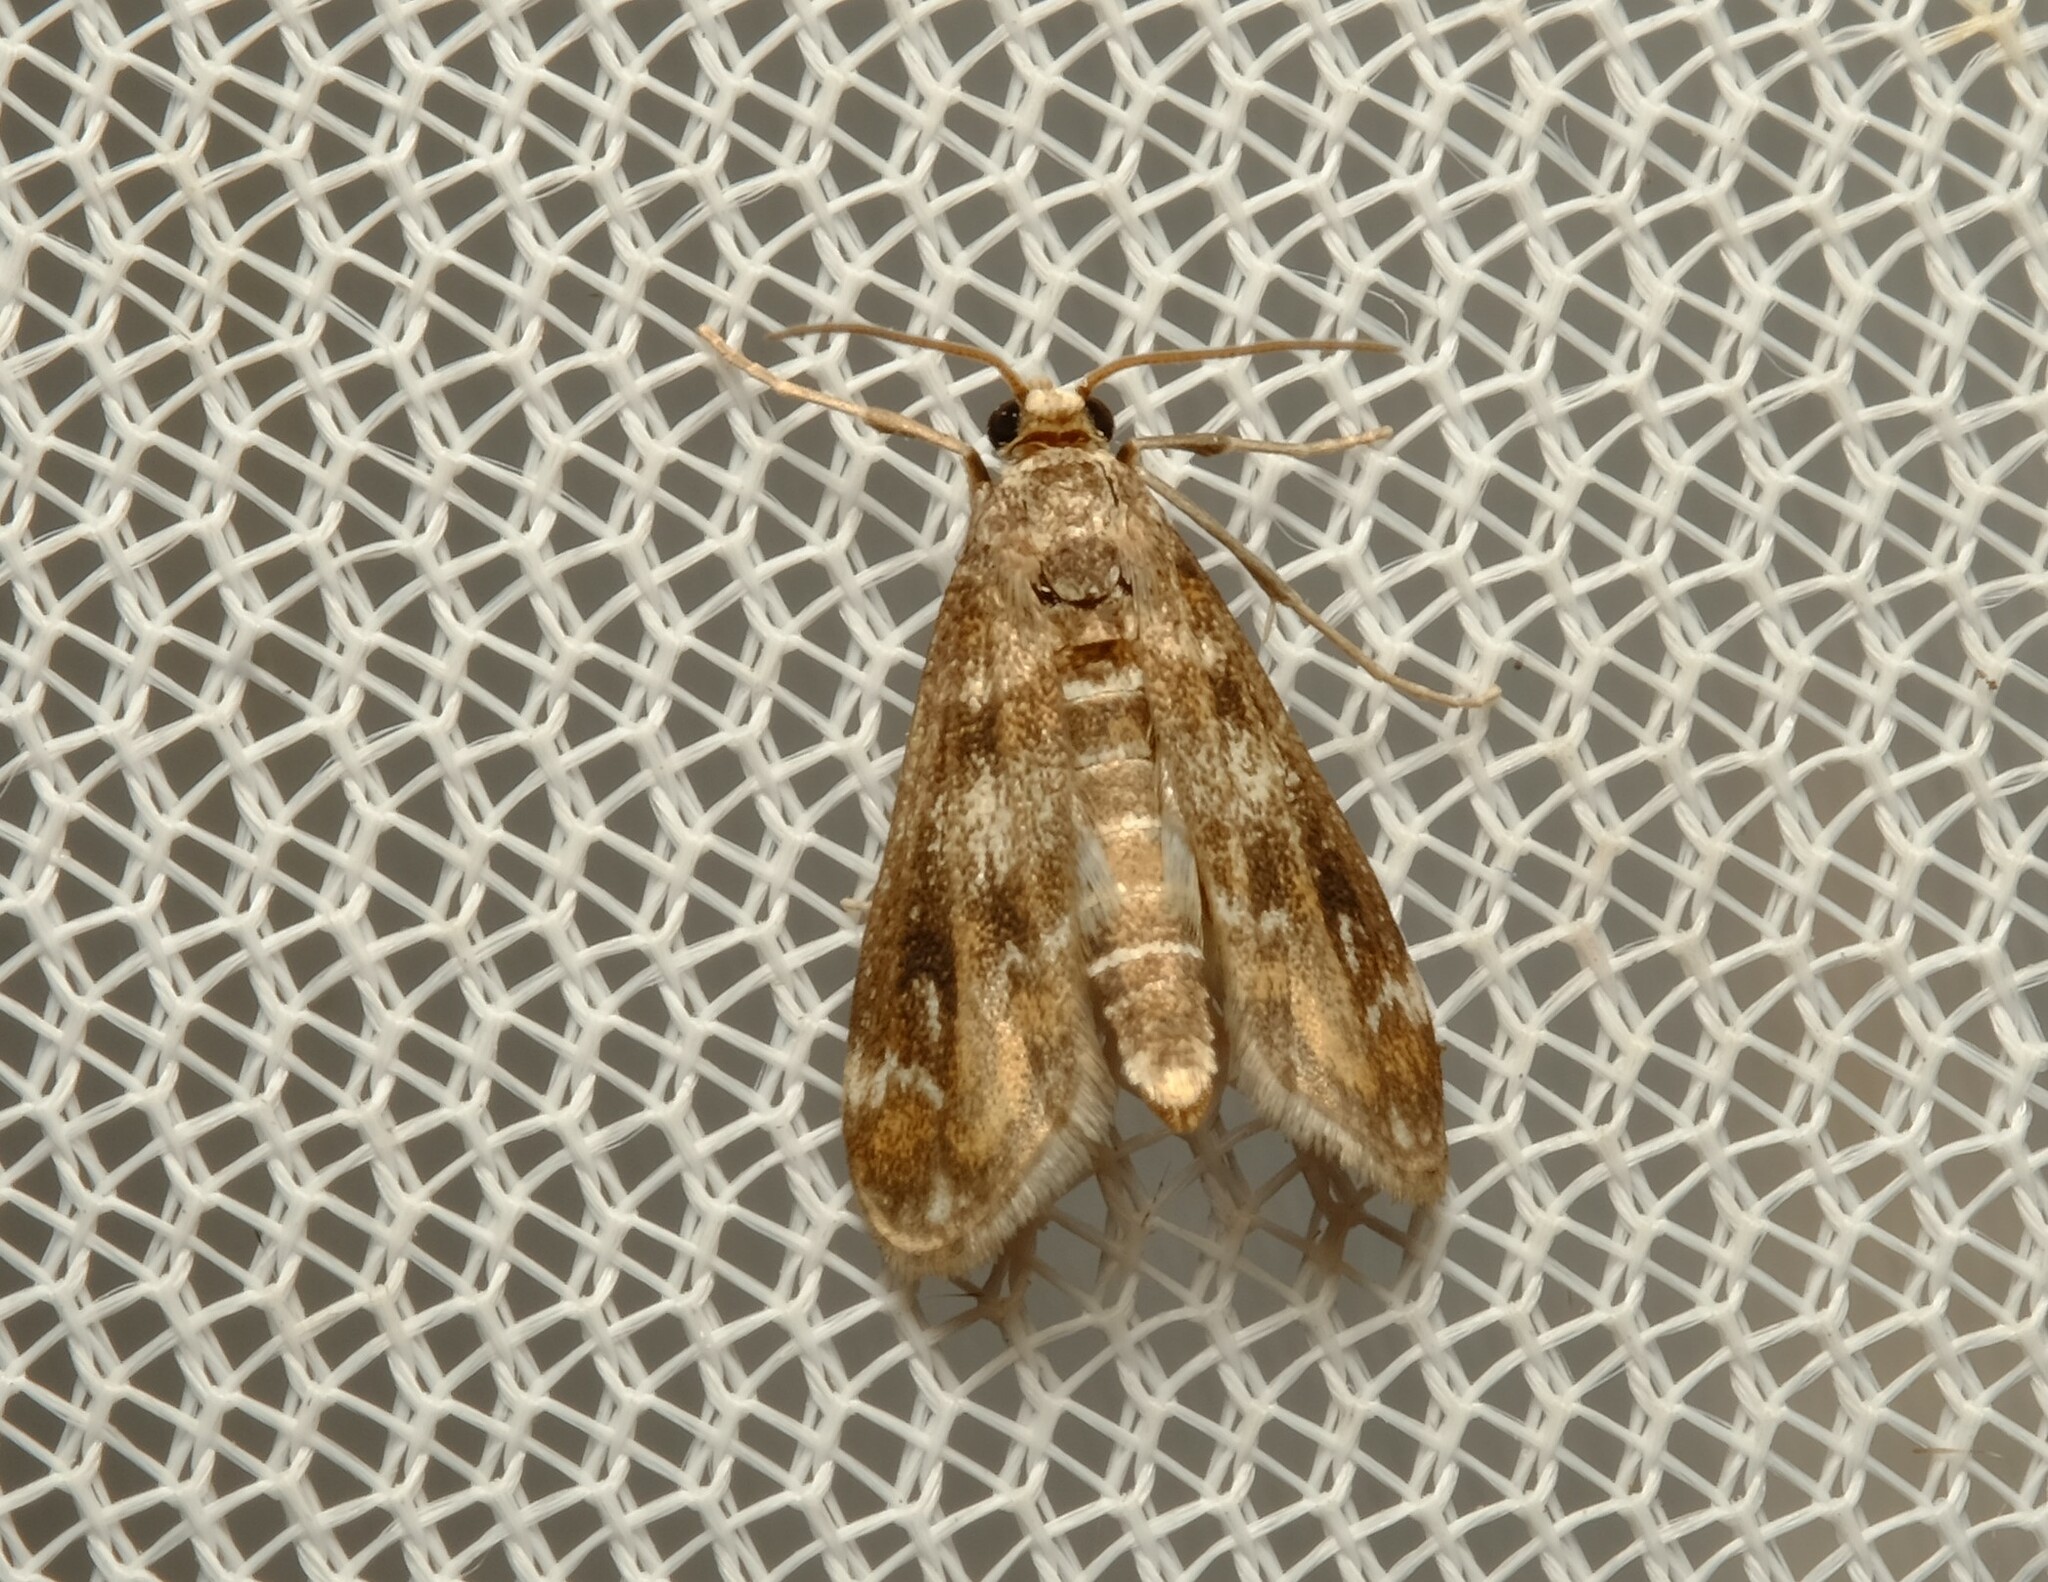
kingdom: Animalia
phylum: Arthropoda
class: Insecta
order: Lepidoptera
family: Crambidae
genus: Hygraula
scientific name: Hygraula nitens
